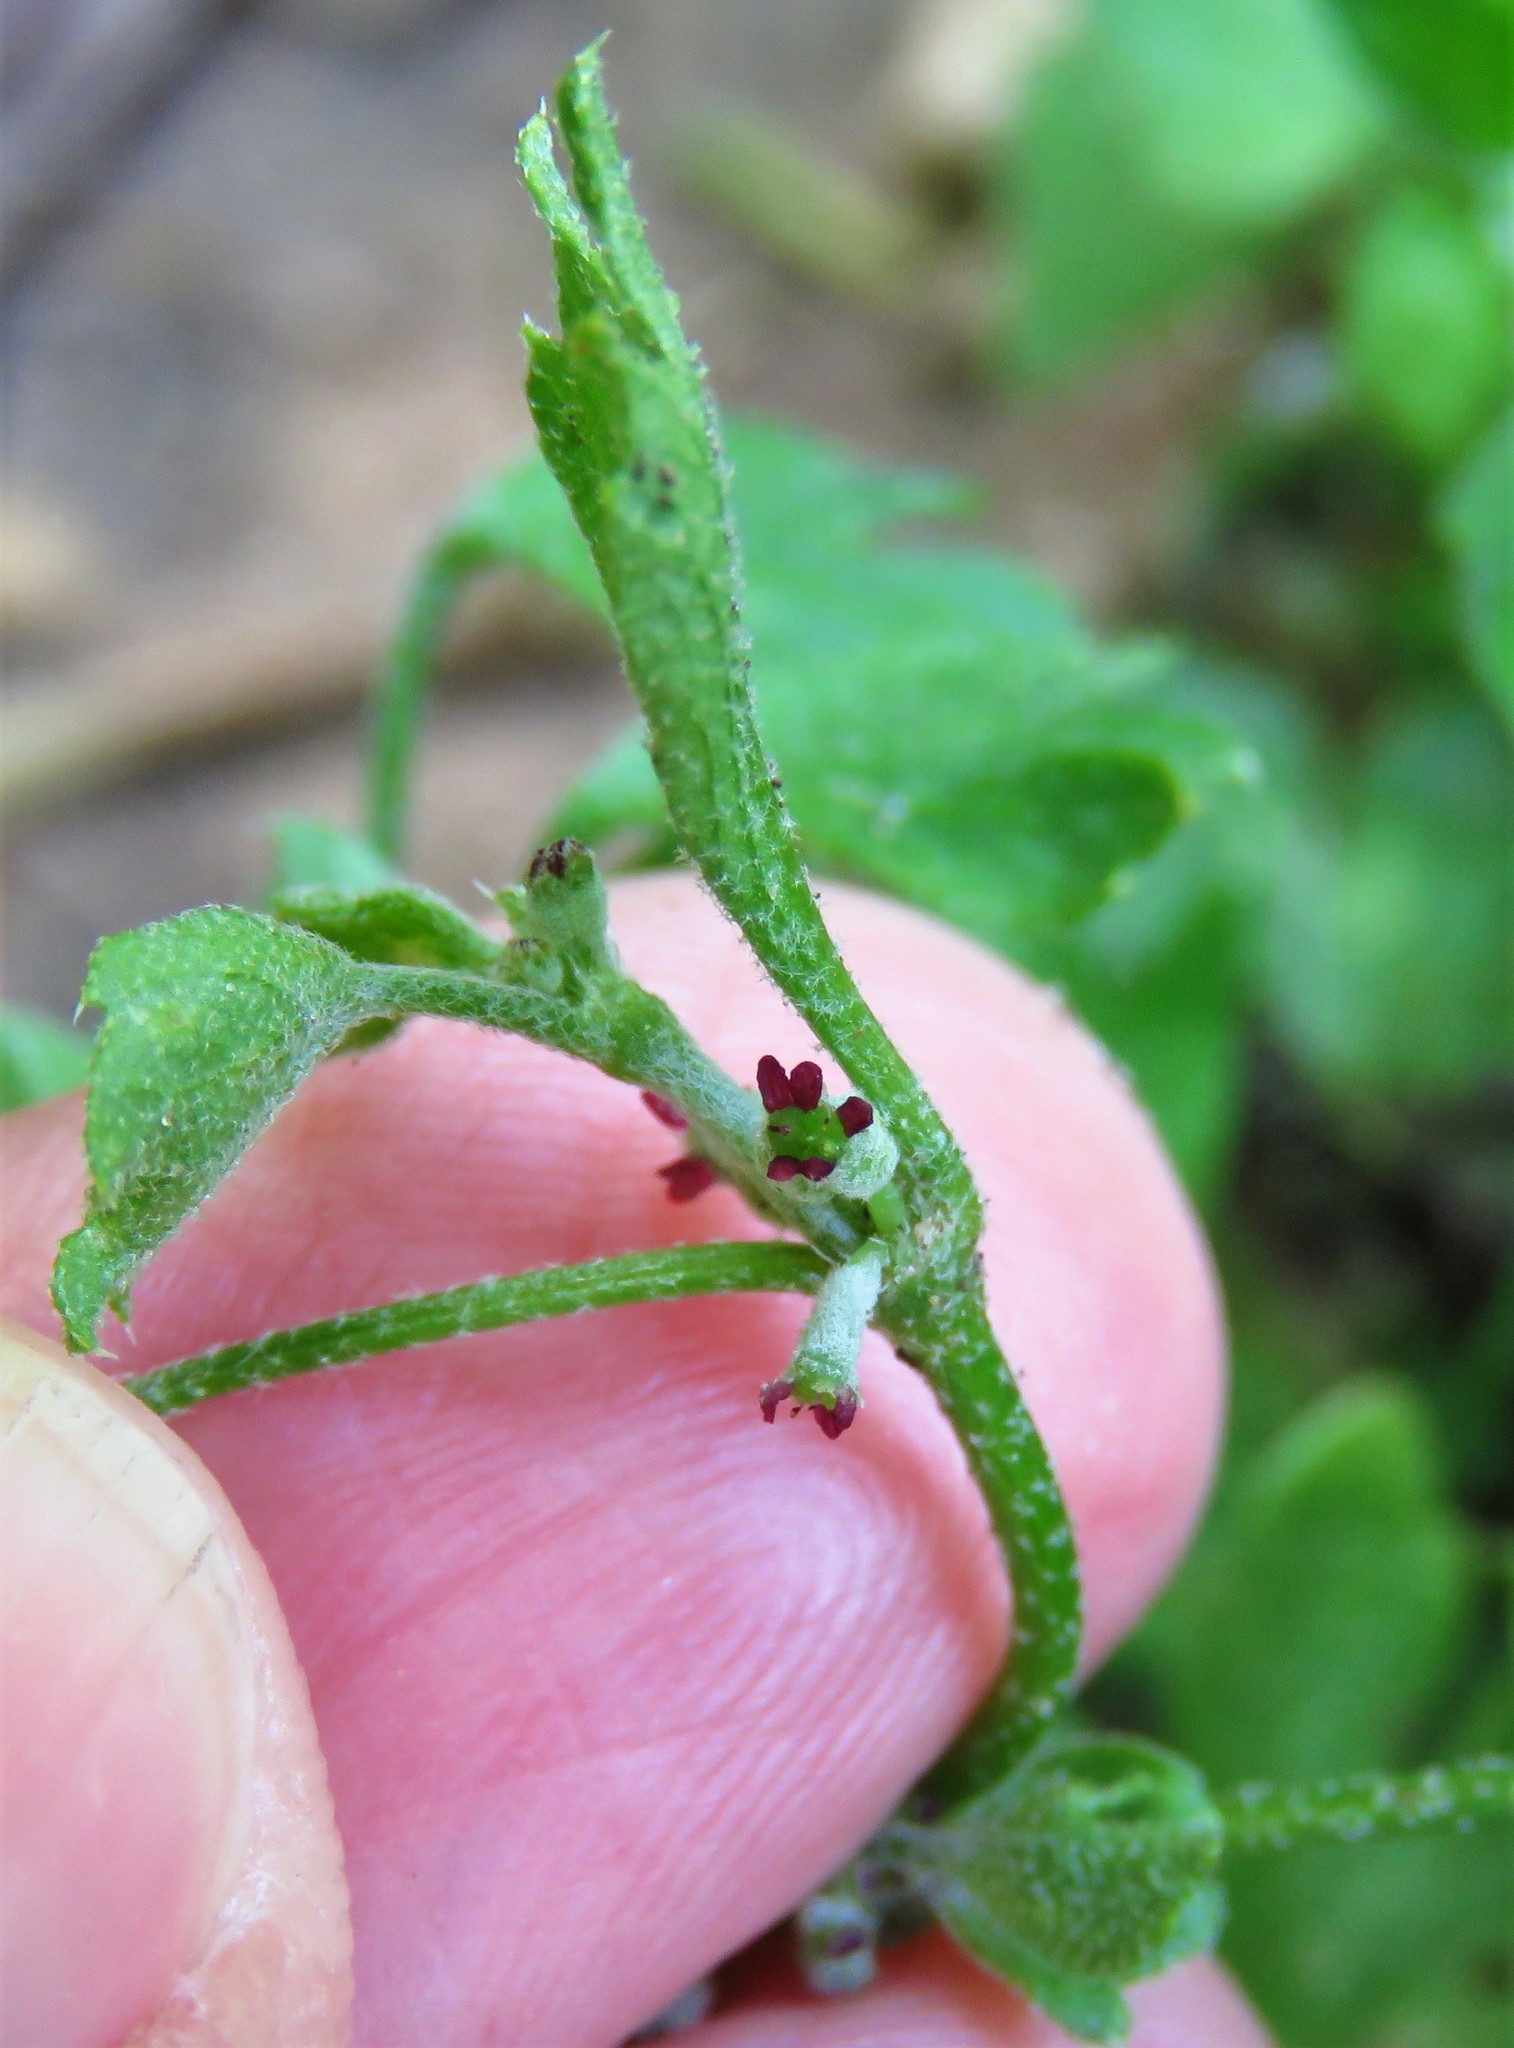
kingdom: Plantae
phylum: Tracheophyta
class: Magnoliopsida
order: Apiales
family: Apiaceae
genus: Bowlesia
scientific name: Bowlesia incana
